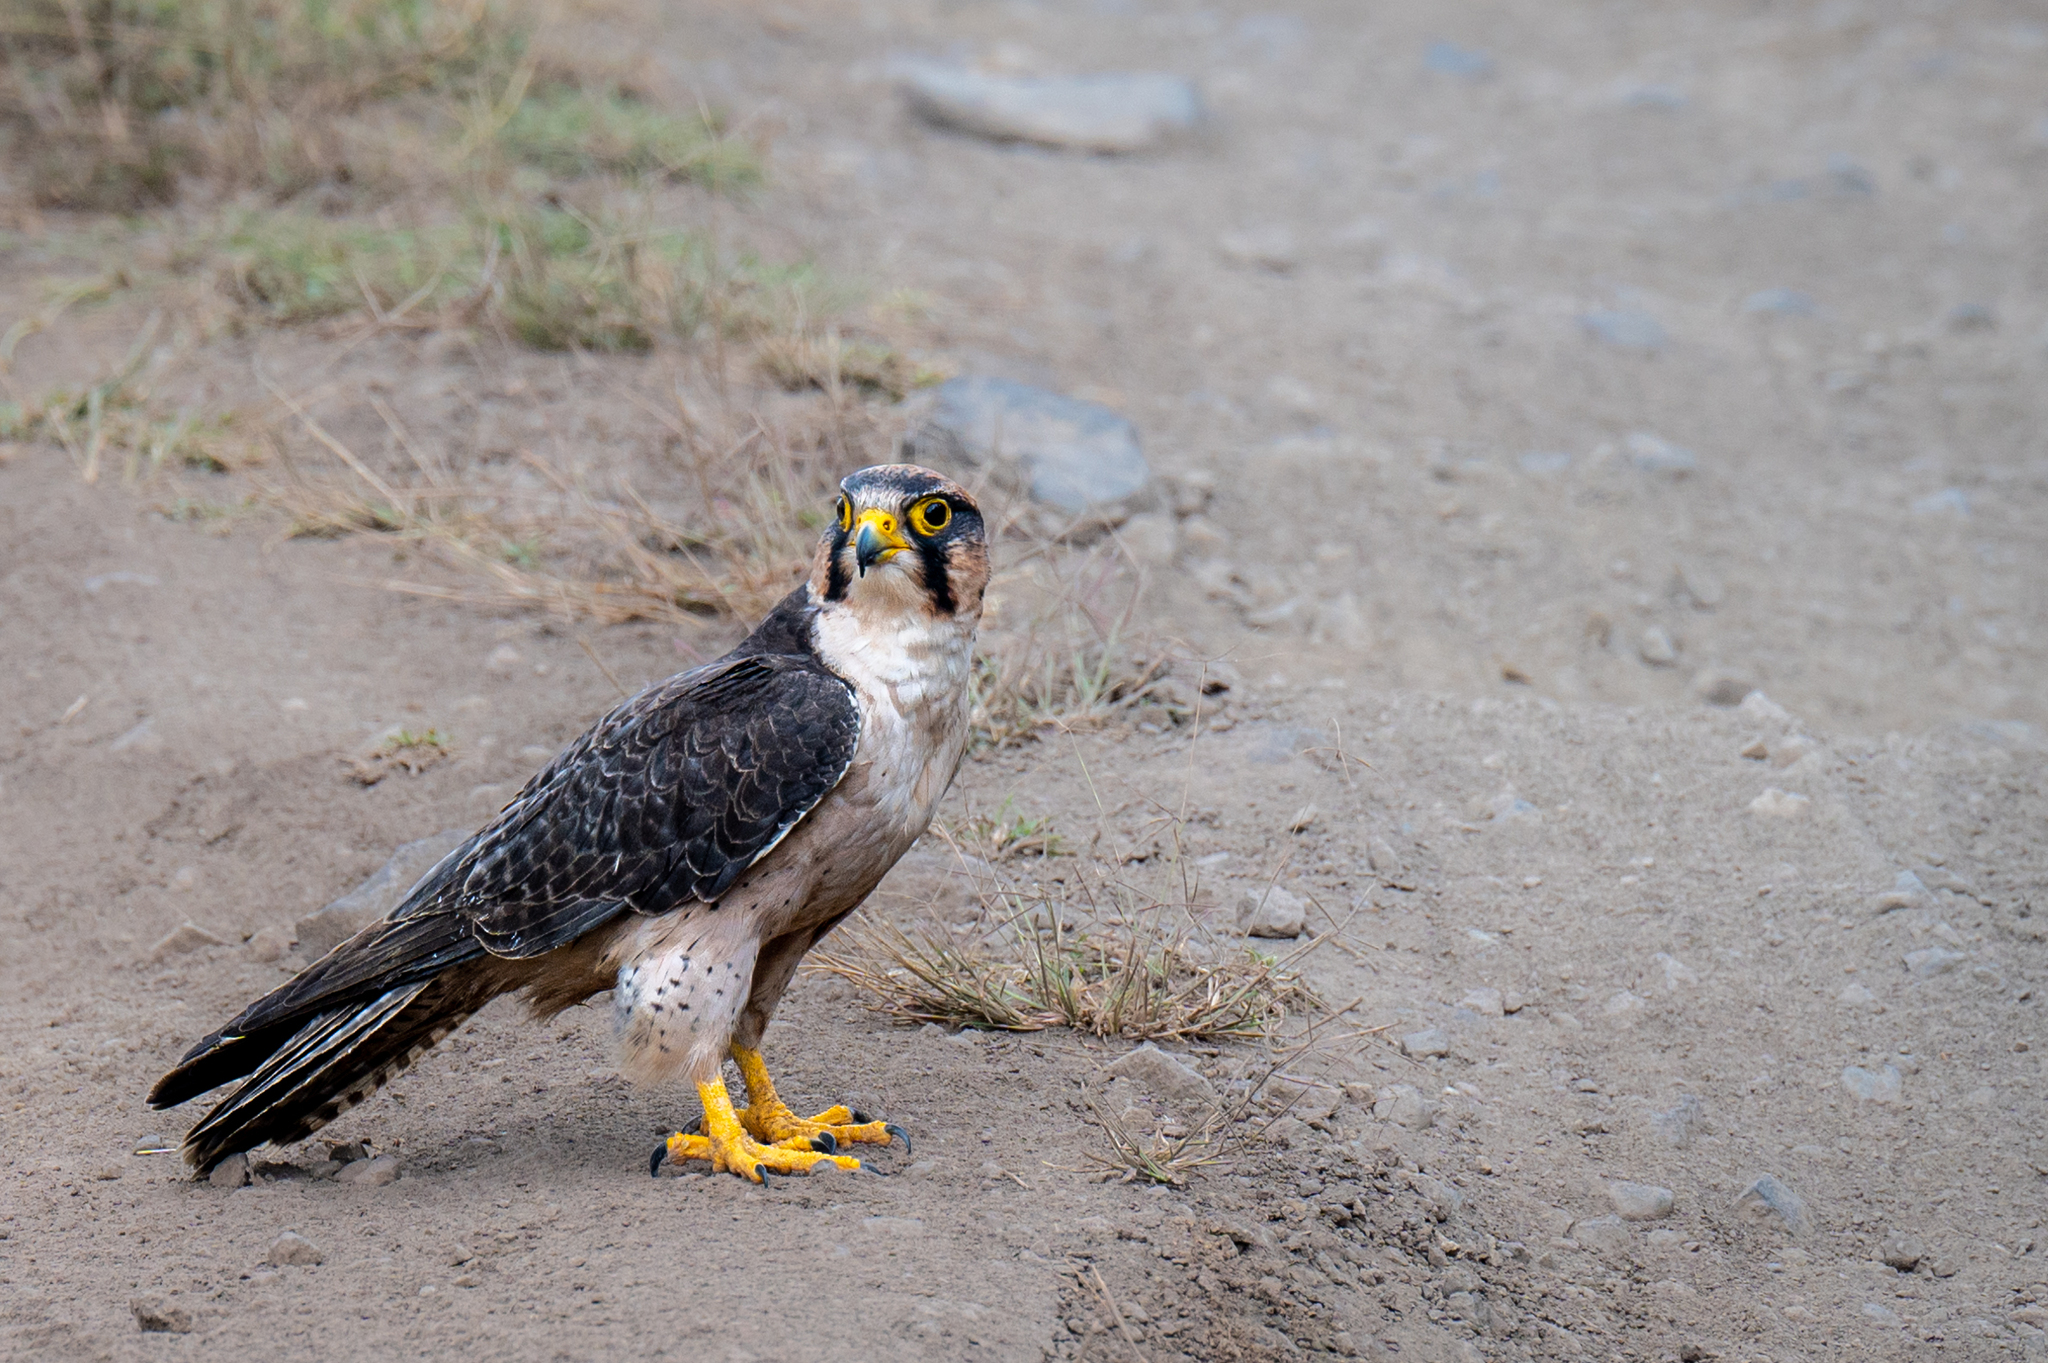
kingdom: Animalia
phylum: Chordata
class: Aves
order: Falconiformes
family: Falconidae
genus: Falco
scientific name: Falco biarmicus
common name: Lanner falcon
